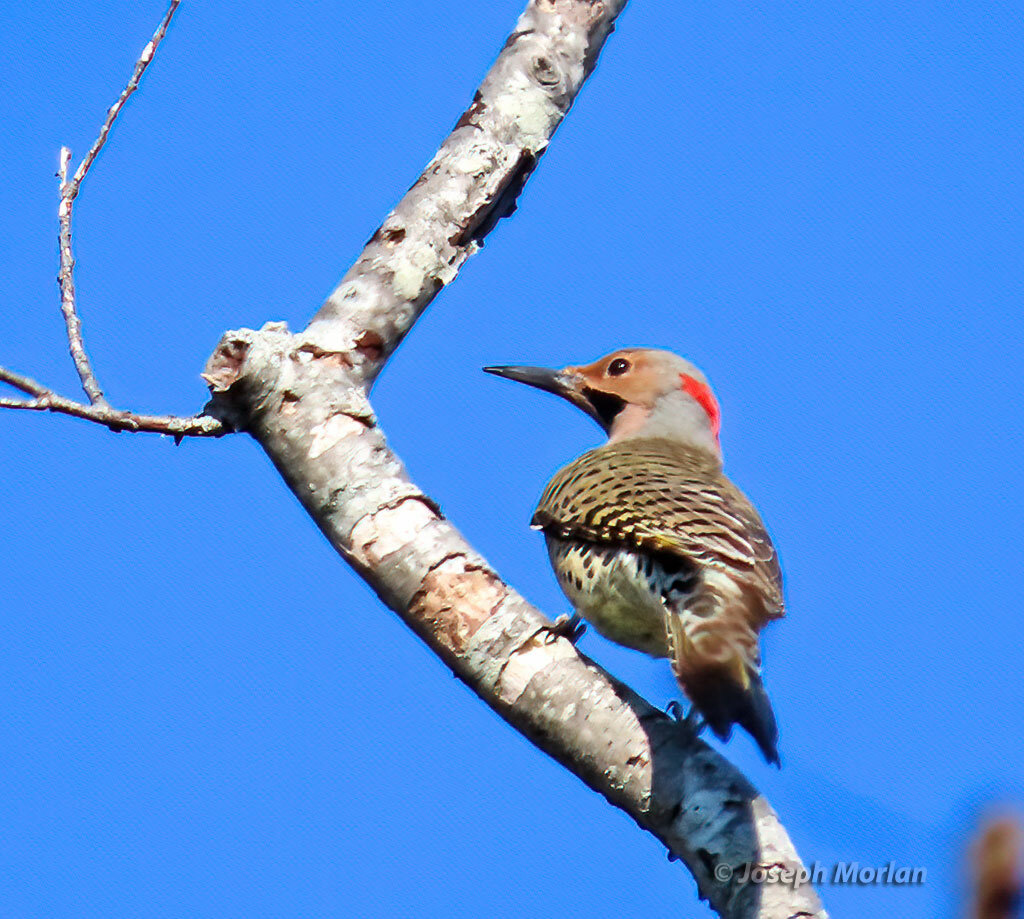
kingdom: Animalia
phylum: Chordata
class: Aves
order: Piciformes
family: Picidae
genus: Colaptes
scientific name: Colaptes auratus
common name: Northern flicker
